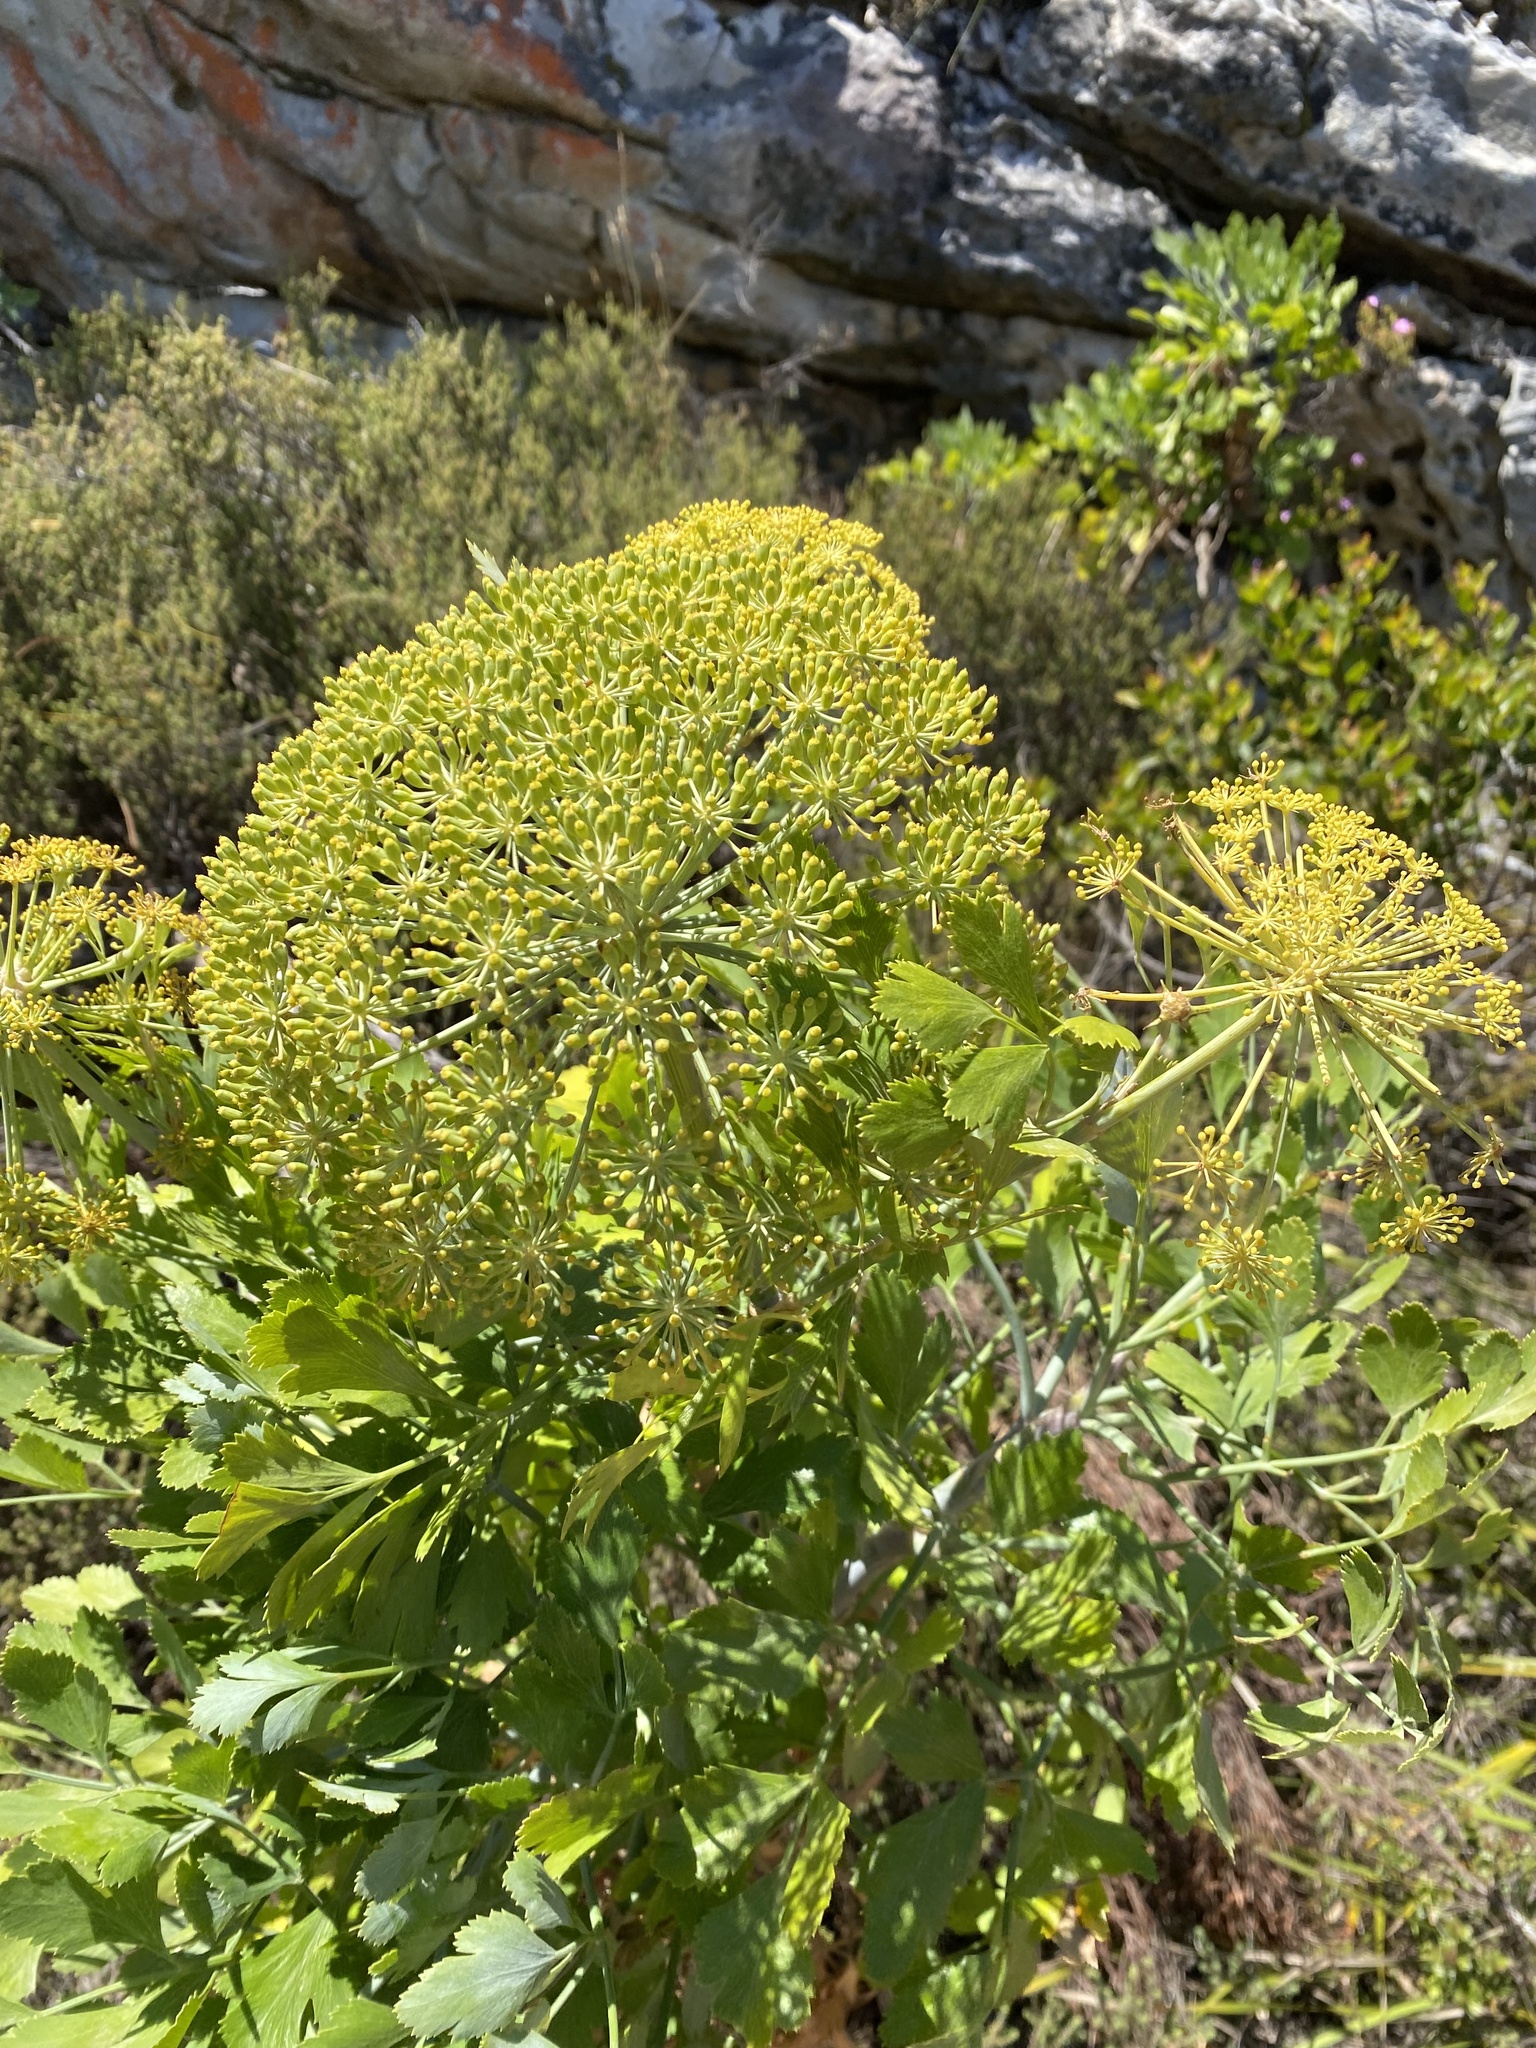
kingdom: Plantae
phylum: Tracheophyta
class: Magnoliopsida
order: Apiales
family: Apiaceae
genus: Notobubon
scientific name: Notobubon galbanum
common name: Blisterbush
